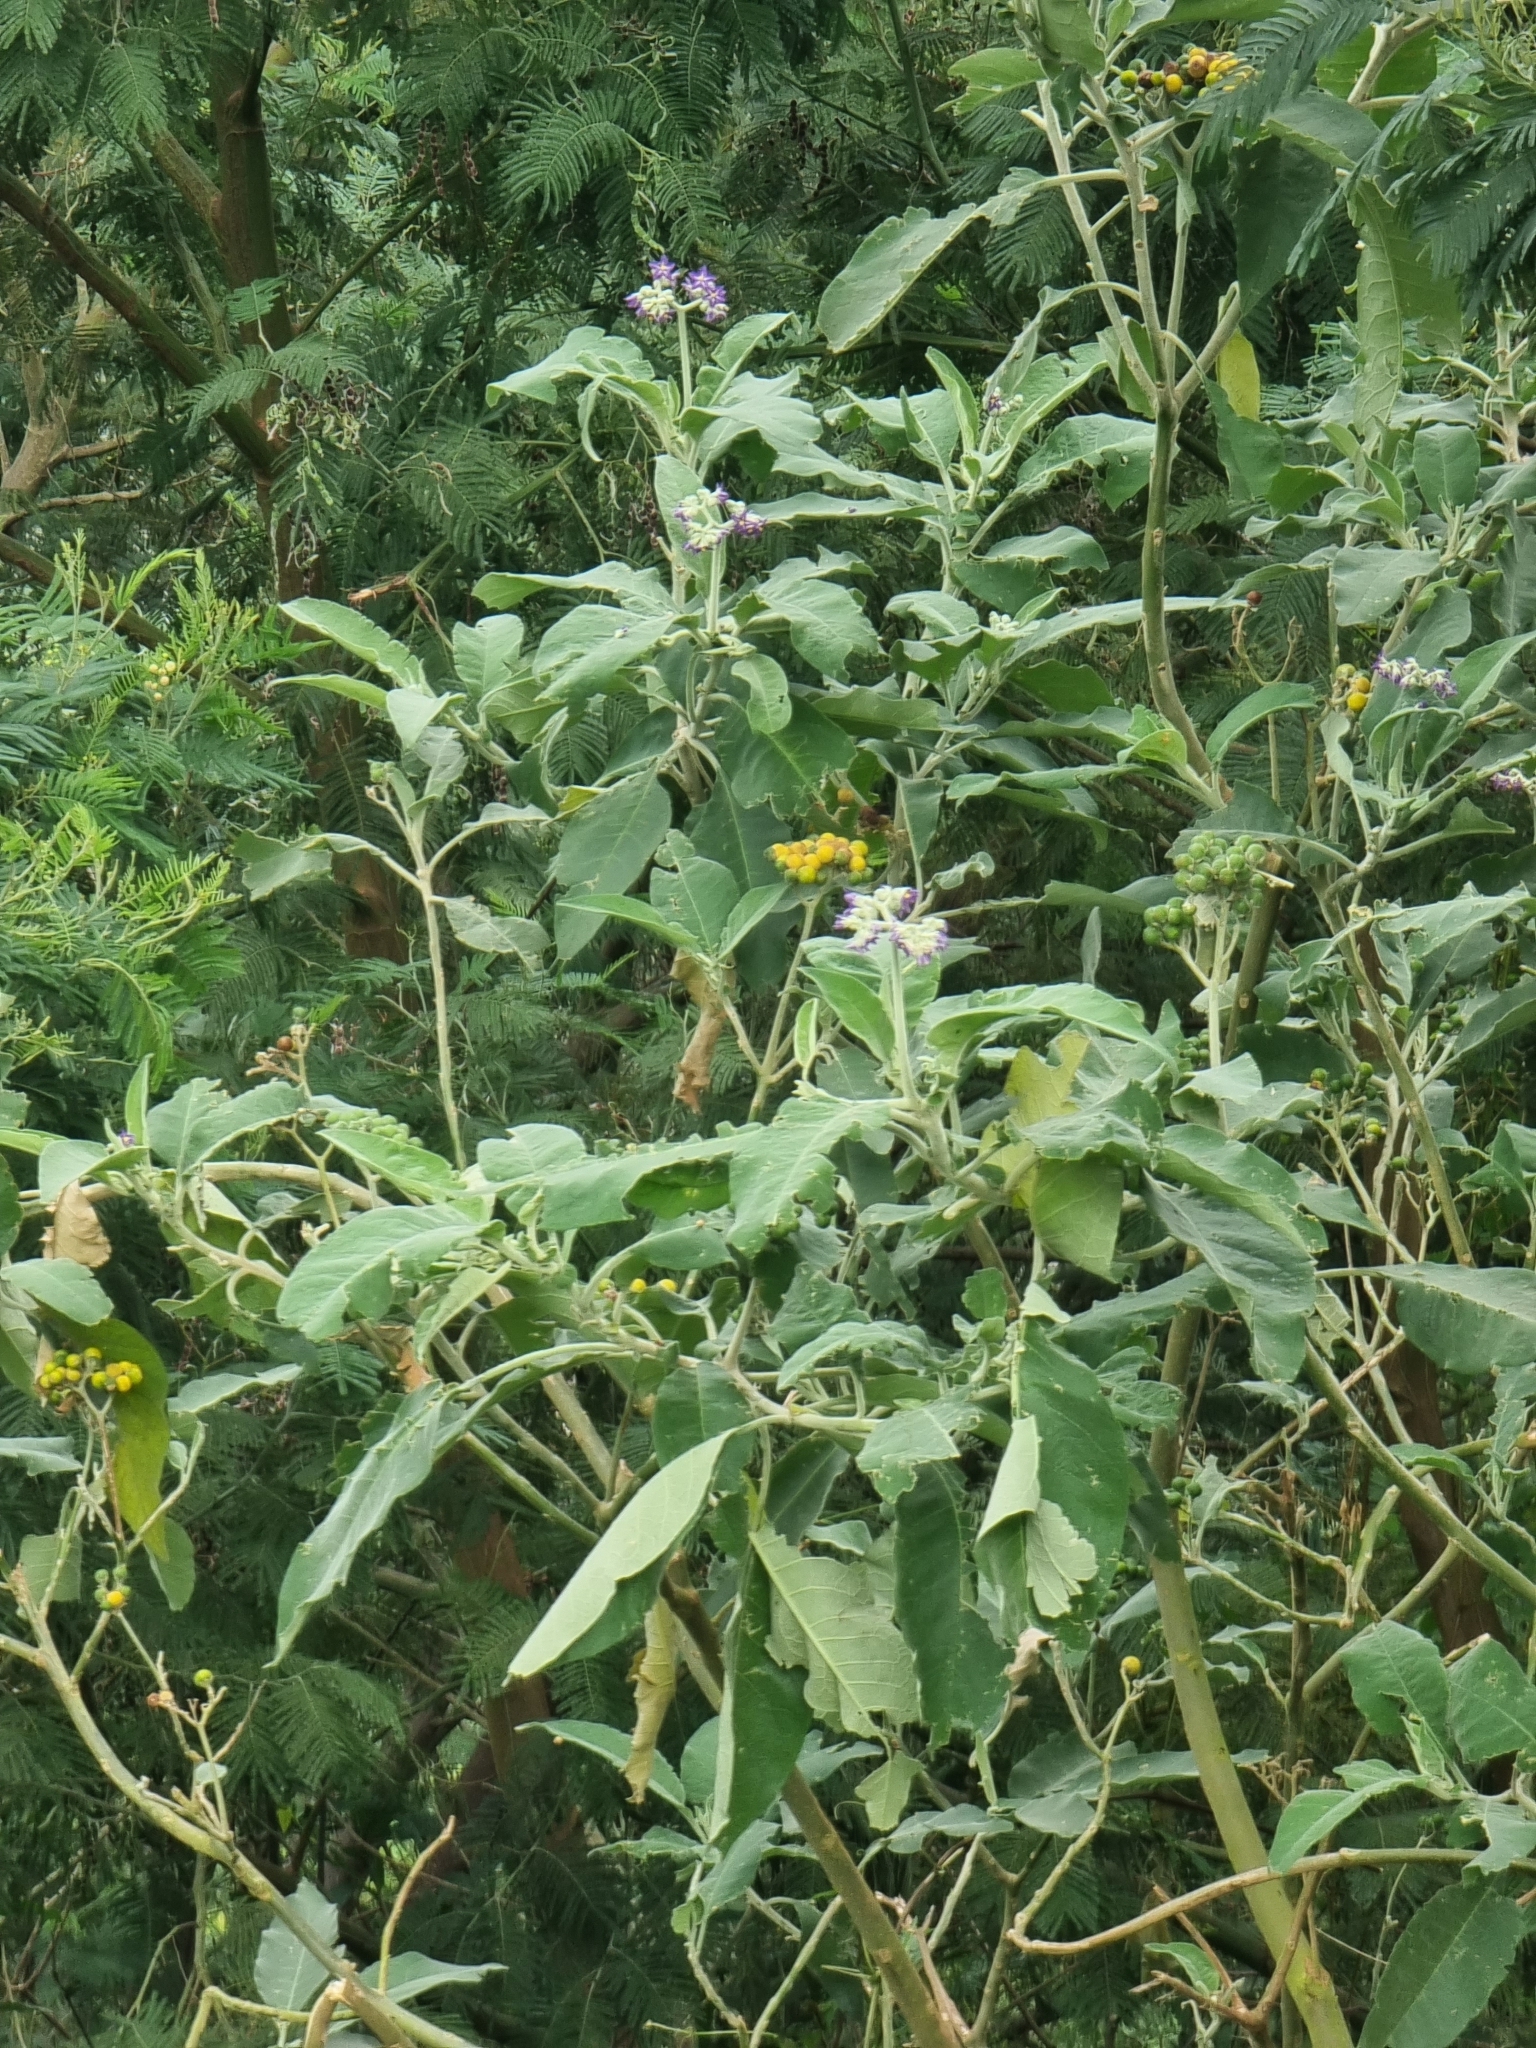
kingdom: Plantae
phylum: Tracheophyta
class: Magnoliopsida
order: Solanales
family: Solanaceae
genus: Solanum
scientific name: Solanum mauritianum
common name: Earleaf nightshade
